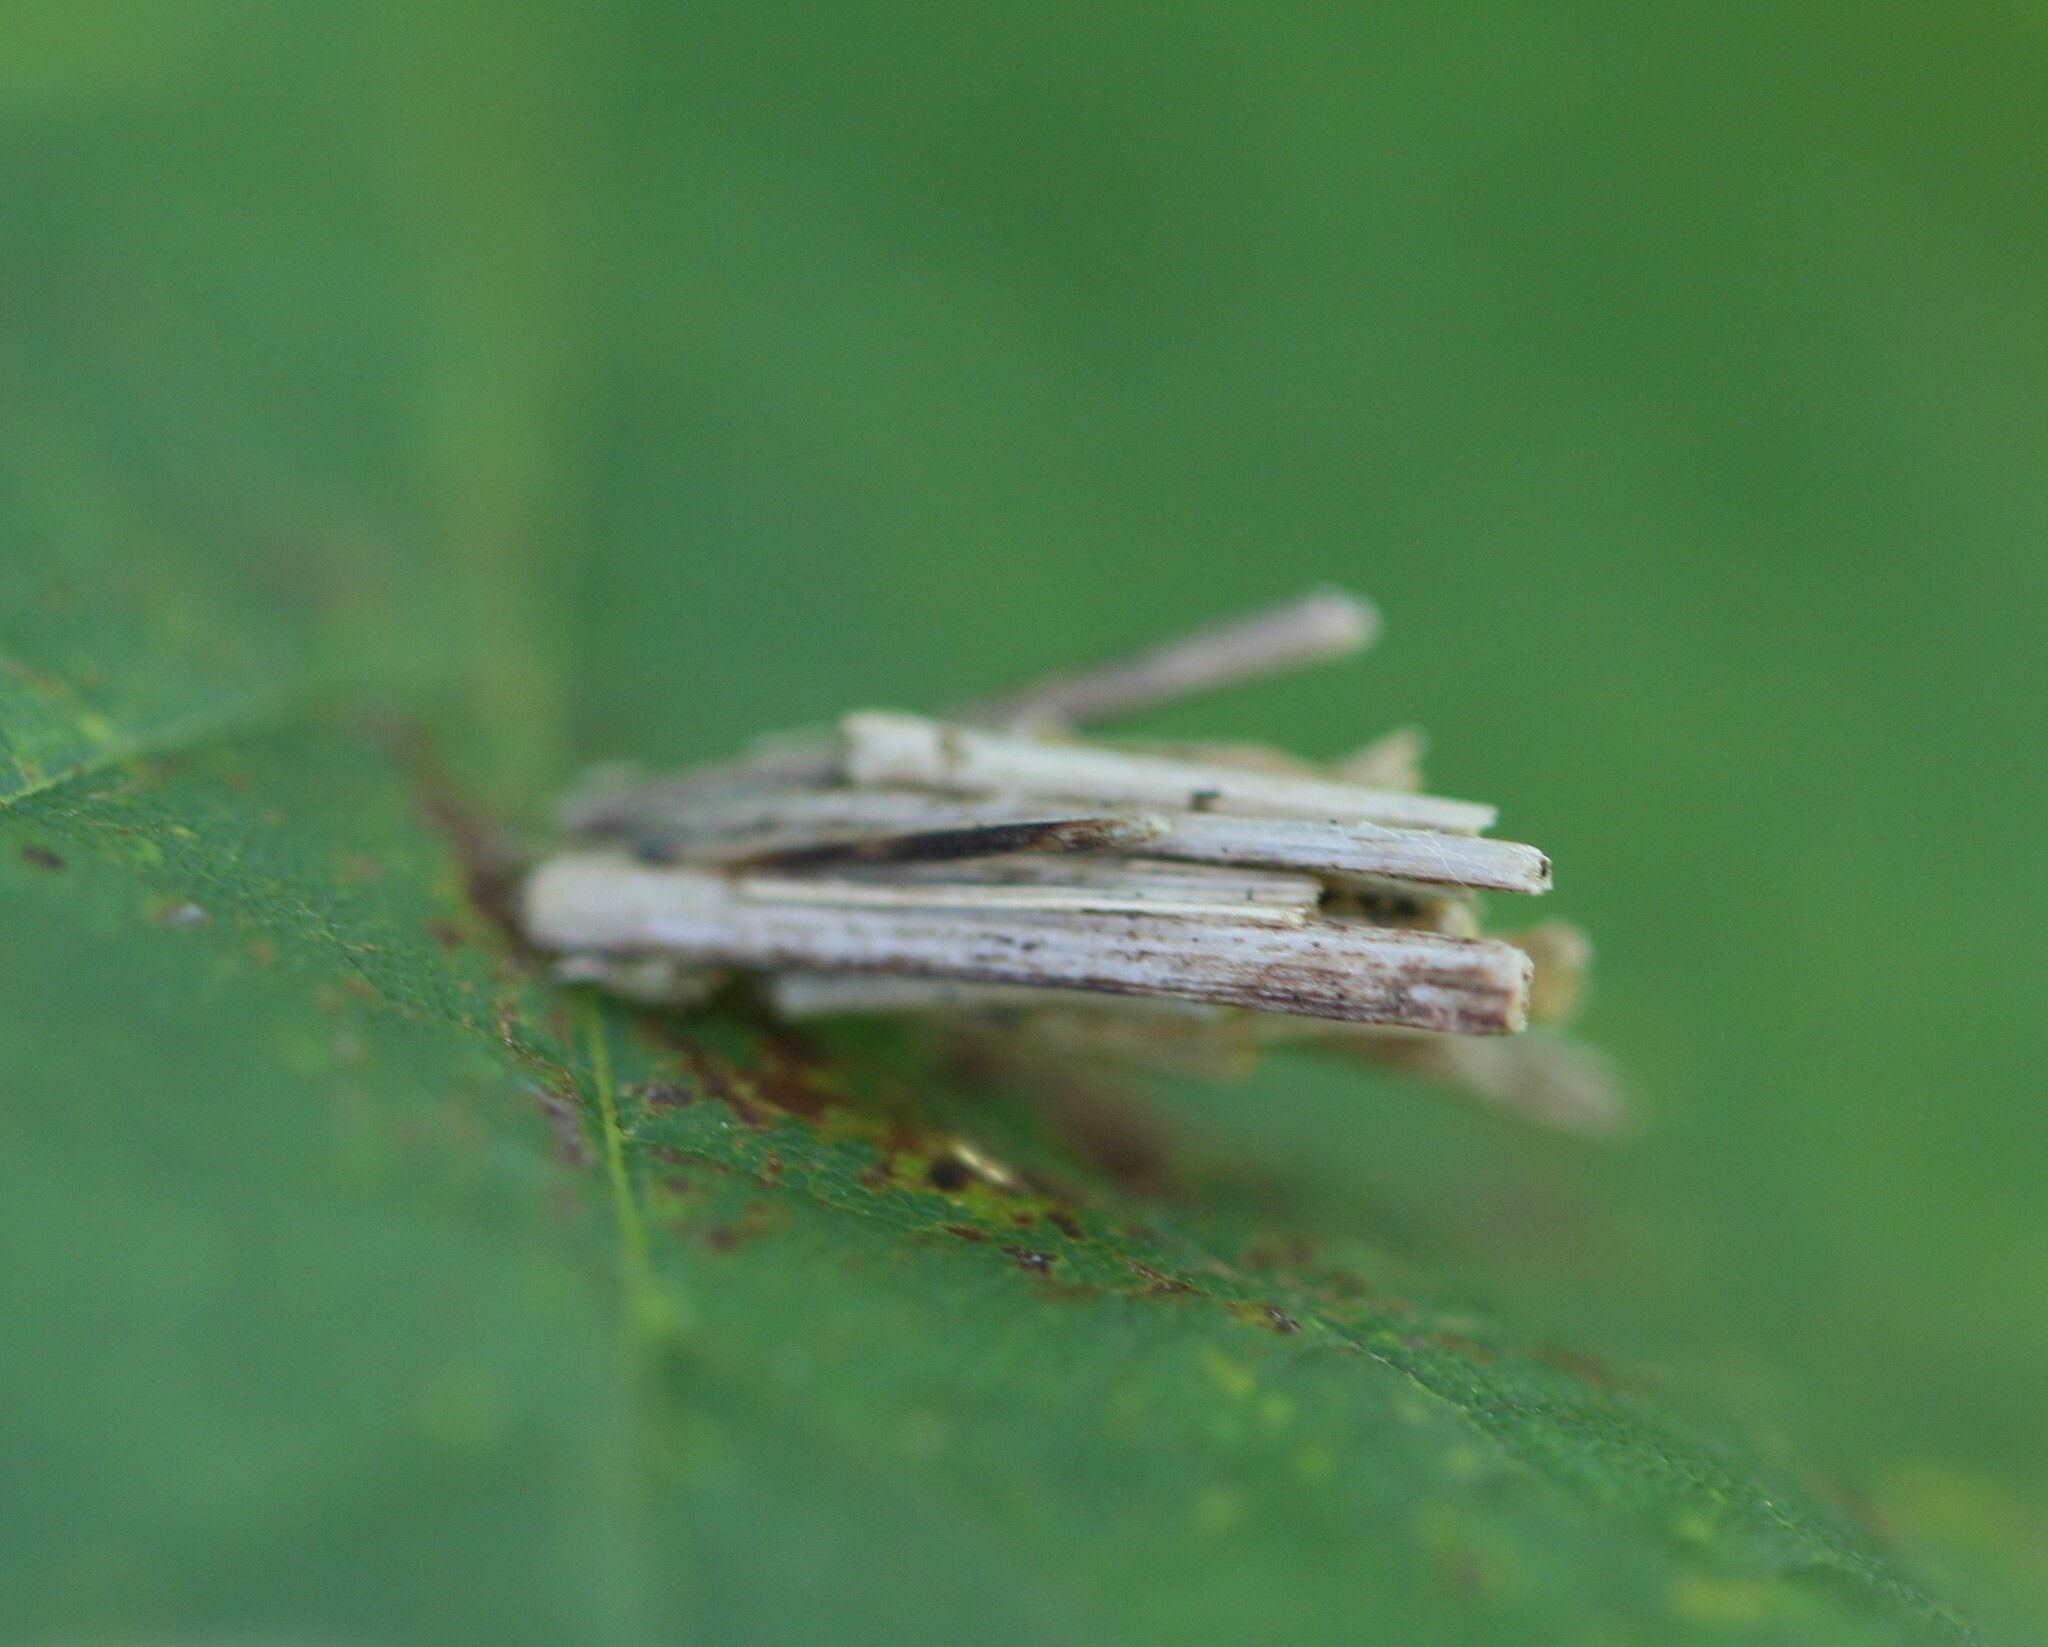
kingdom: Animalia
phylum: Arthropoda
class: Insecta
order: Lepidoptera
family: Psychidae
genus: Psyche
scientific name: Psyche casta
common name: Common sweep
